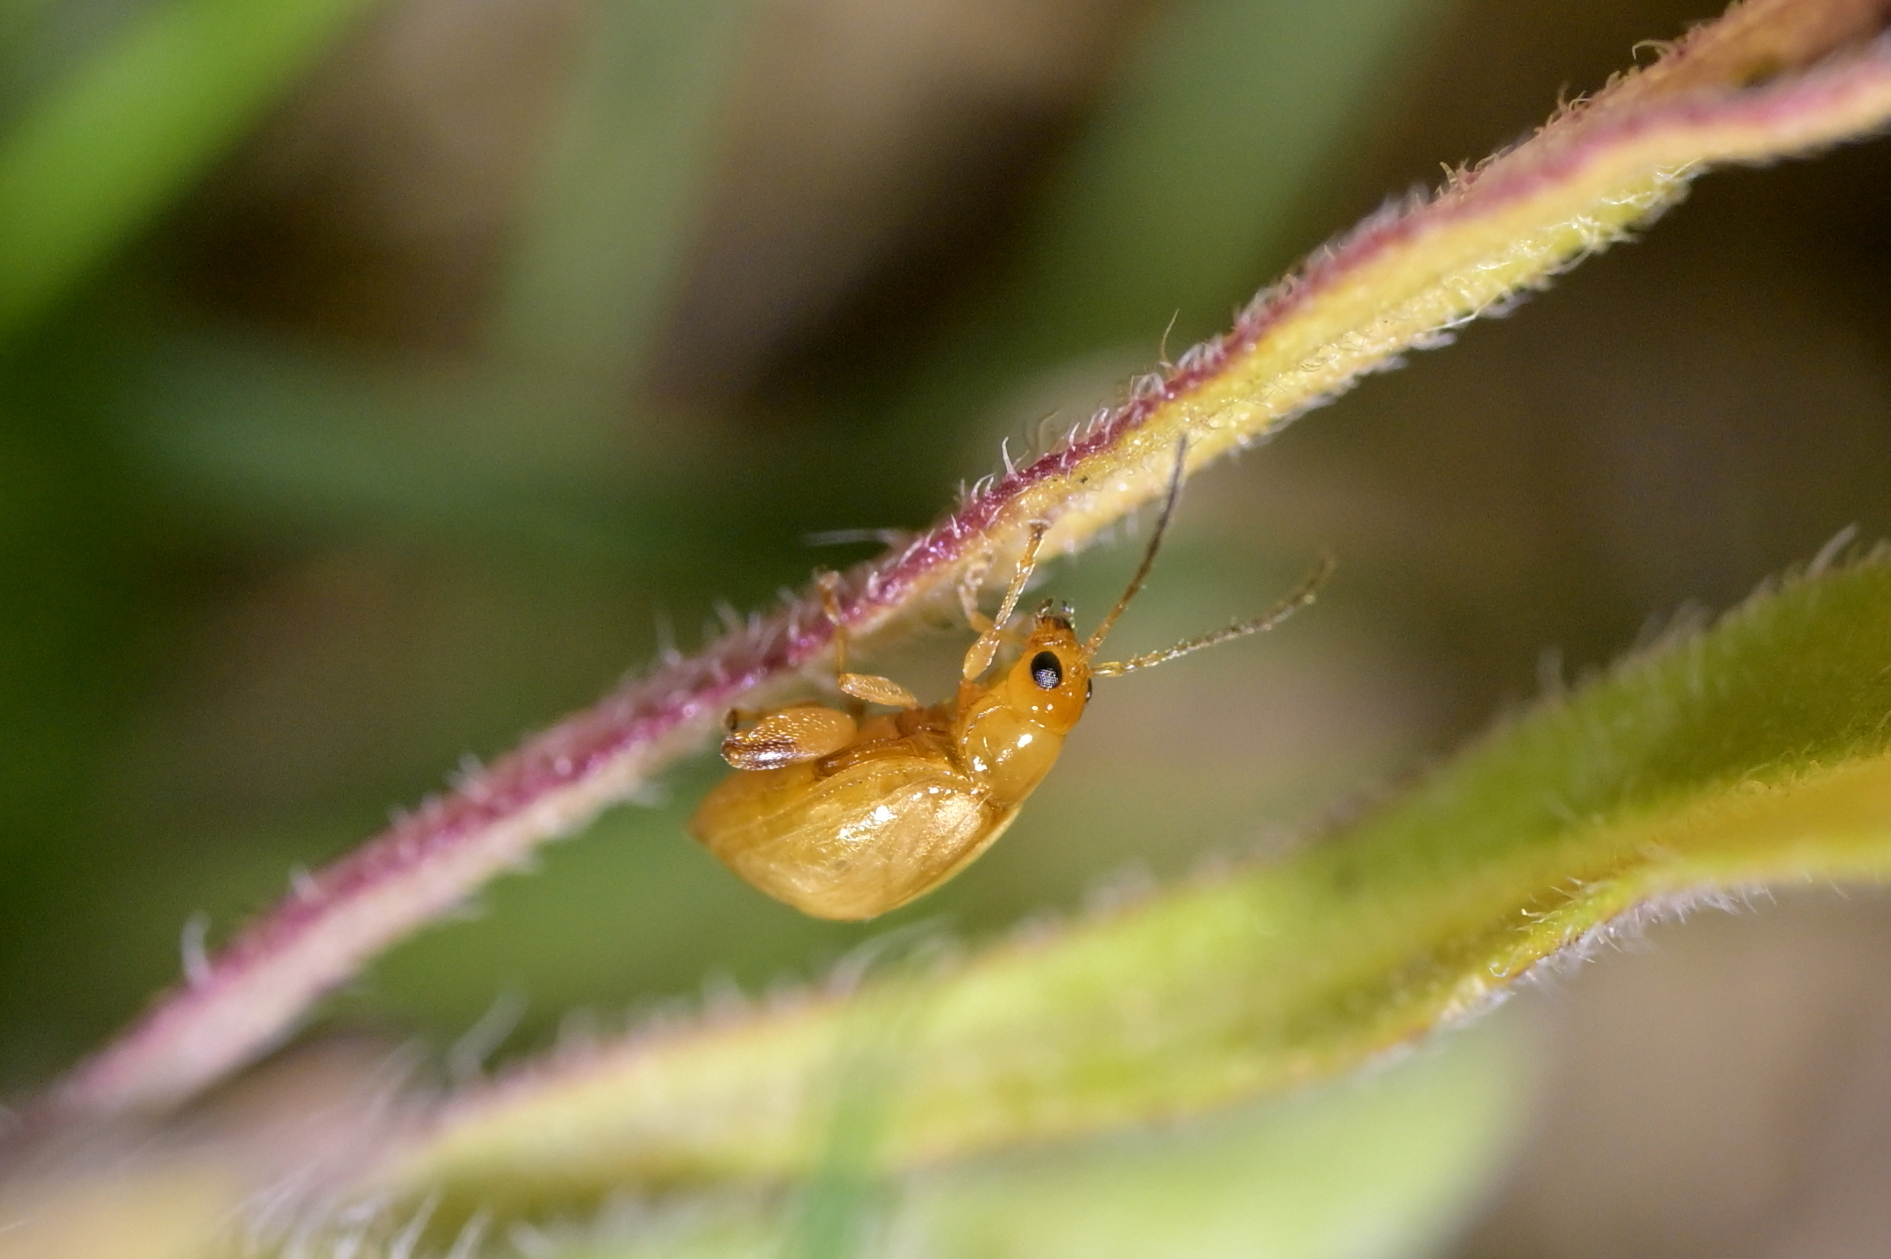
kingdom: Animalia
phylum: Arthropoda
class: Insecta
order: Coleoptera
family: Chrysomelidae
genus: Longitarsus
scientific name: Longitarsus jacobaeae
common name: Tansy ragwort flea beetle
